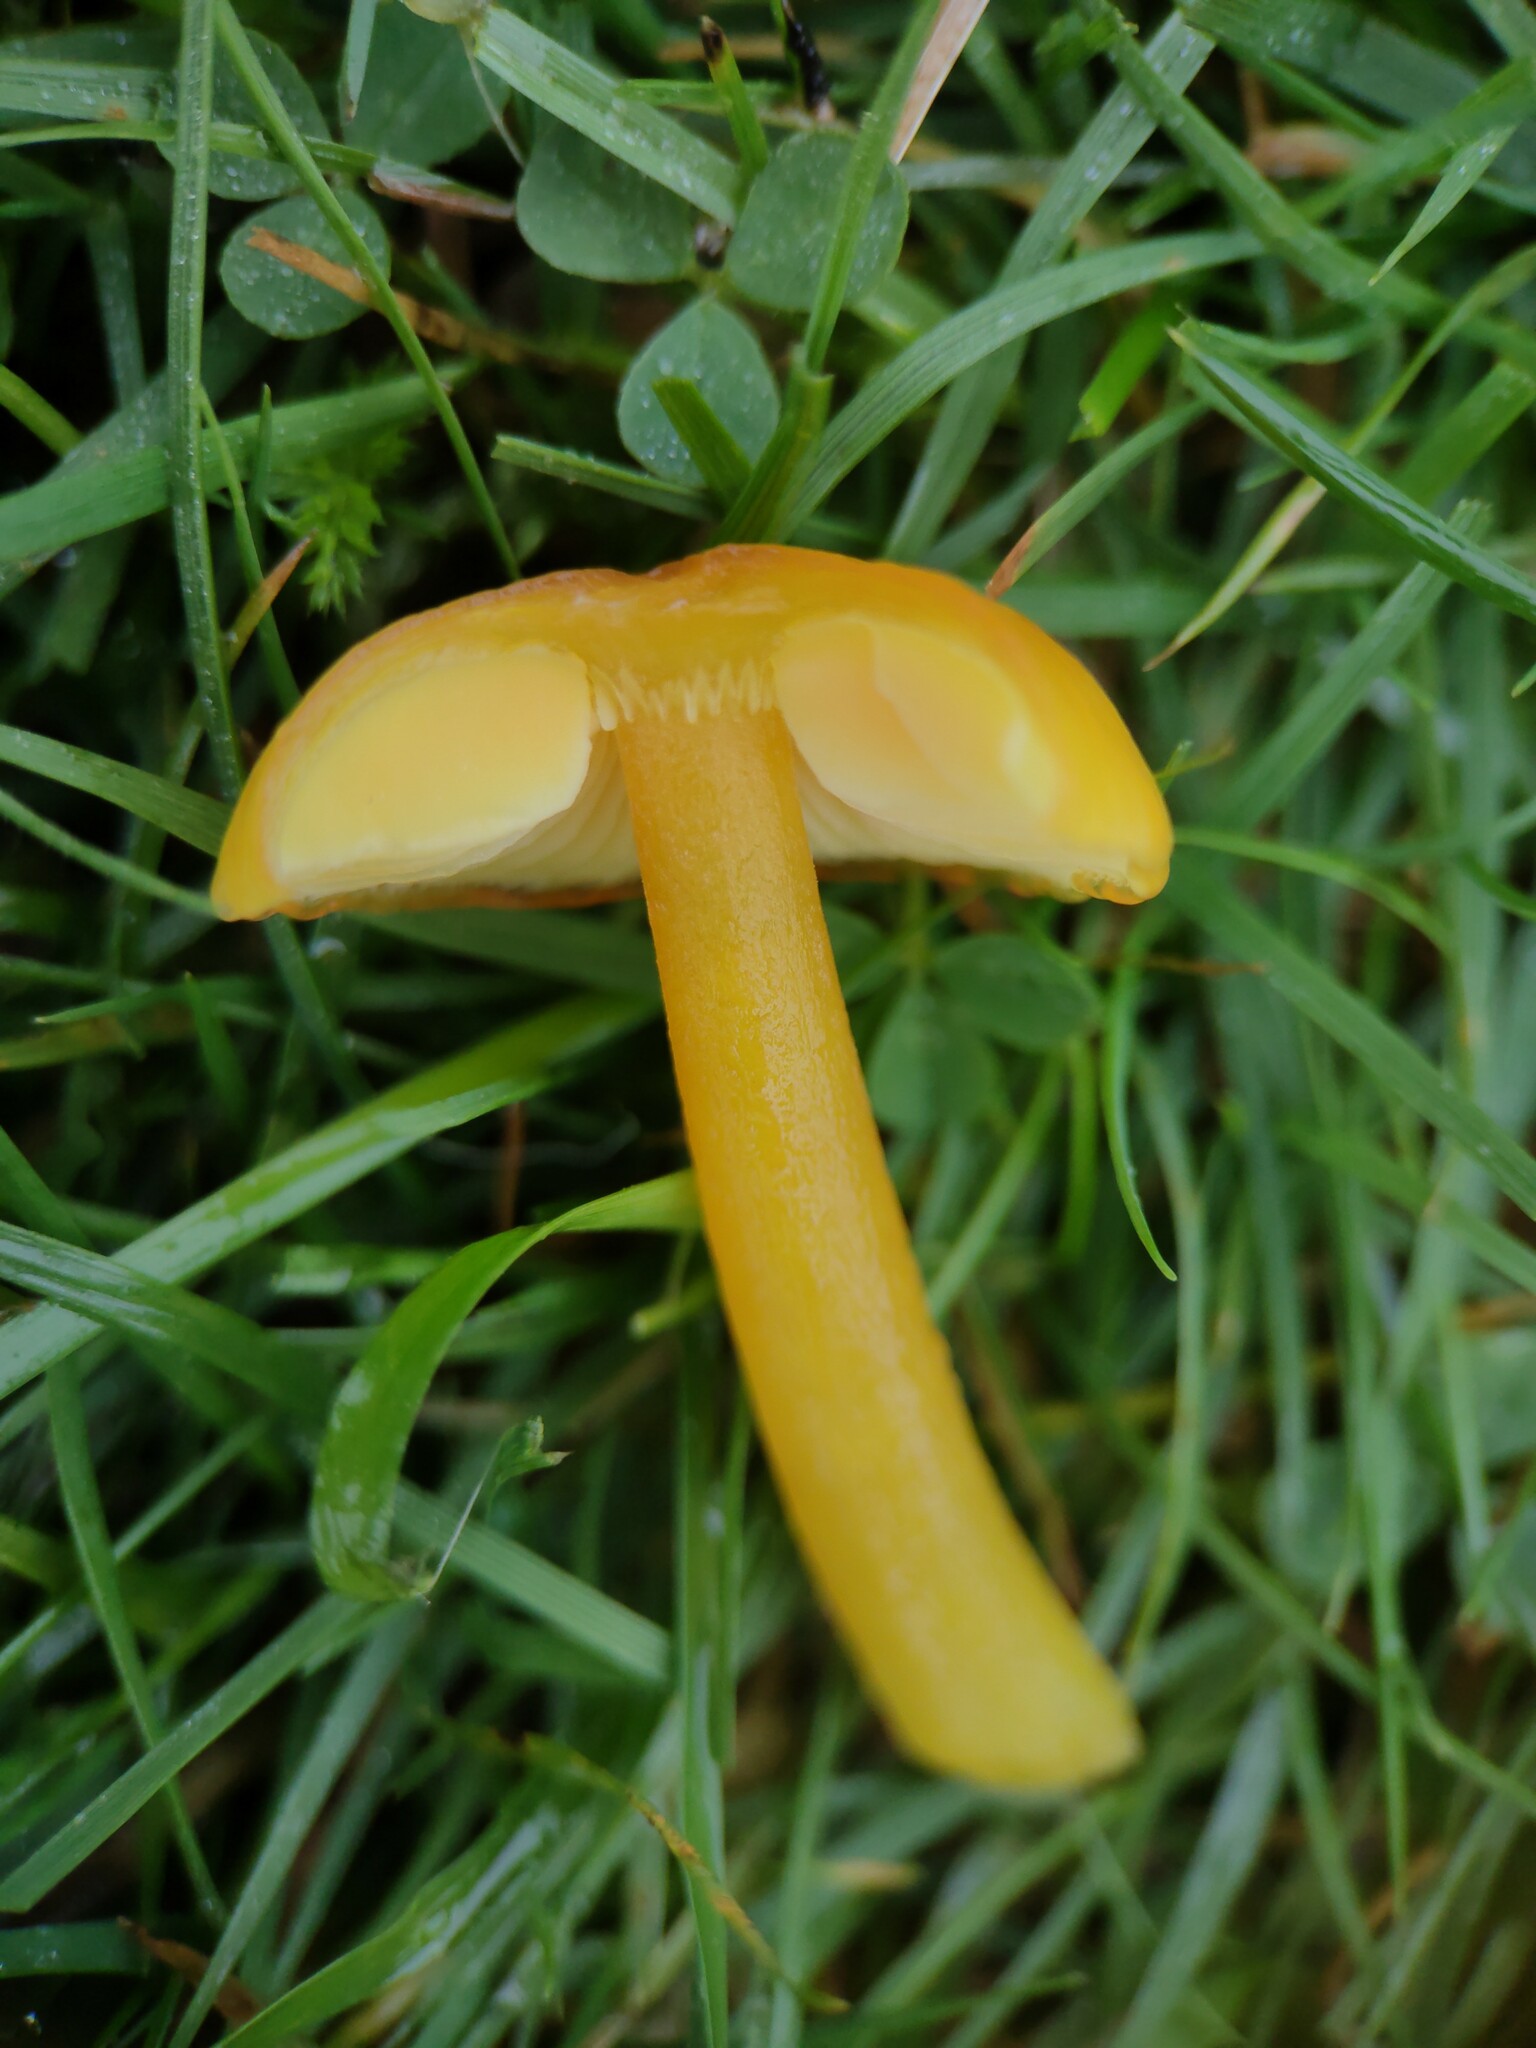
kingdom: Fungi
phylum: Basidiomycota
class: Agaricomycetes
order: Agaricales
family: Hygrophoraceae
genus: Hygrocybe
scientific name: Hygrocybe chlorophana
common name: Golden waxcap
